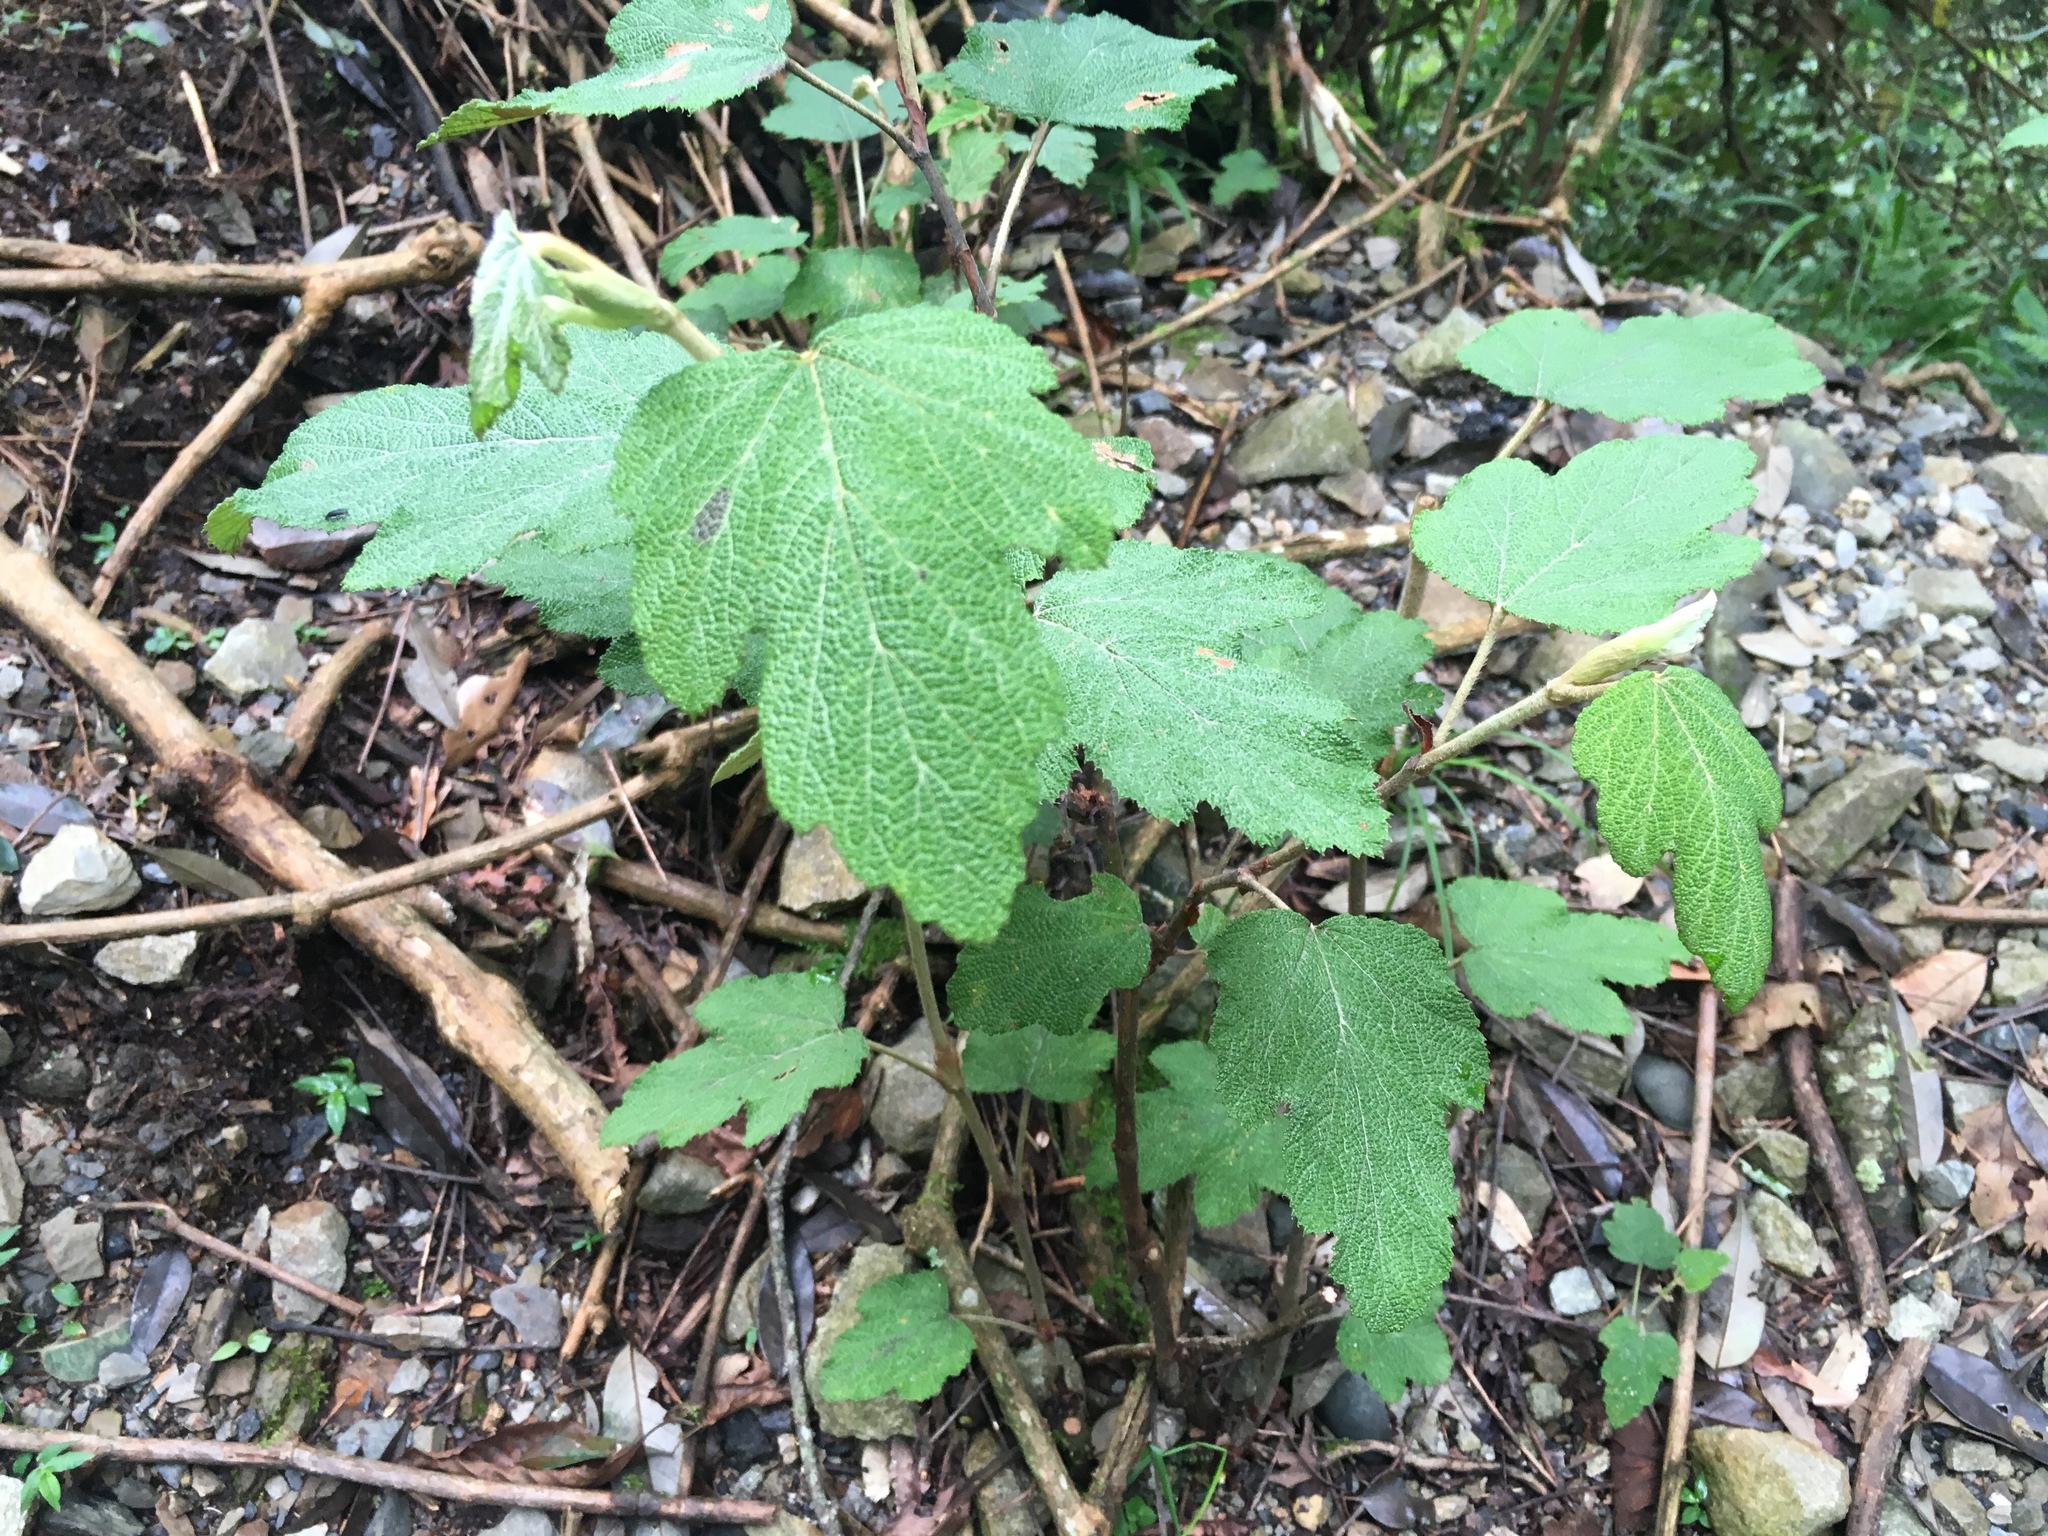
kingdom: Plantae
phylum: Tracheophyta
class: Magnoliopsida
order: Rosales
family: Rosaceae
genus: Rubus
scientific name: Rubus formosensis
